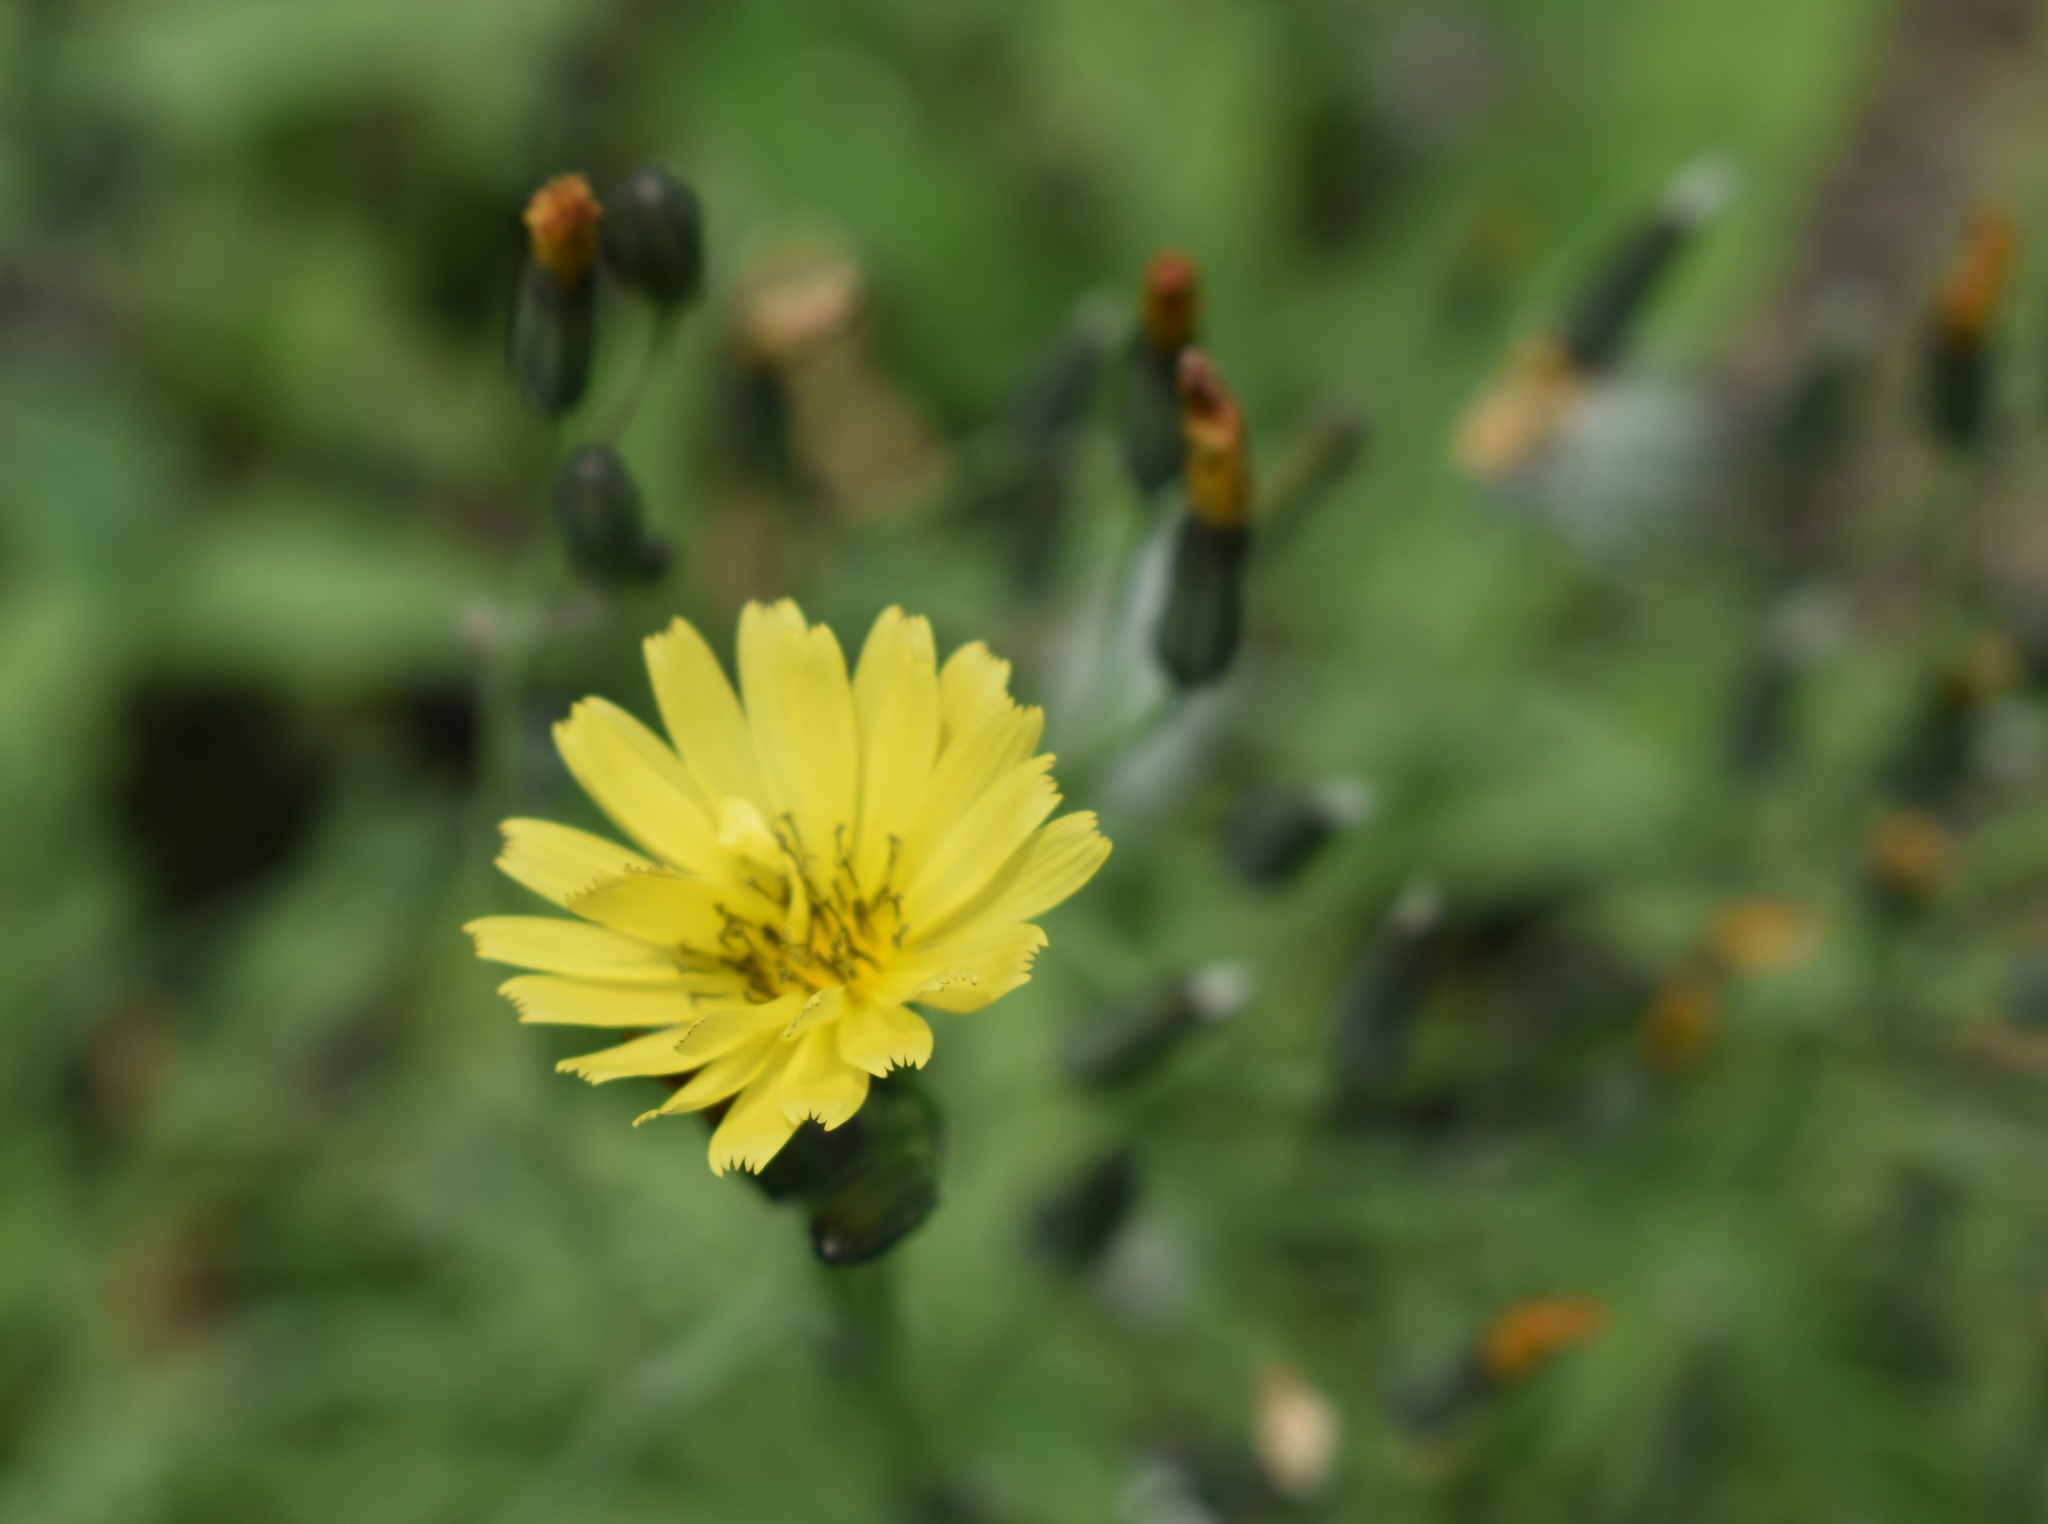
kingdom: Plantae
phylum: Tracheophyta
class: Magnoliopsida
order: Asterales
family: Asteraceae
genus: Ixeris
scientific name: Ixeris chinensis
